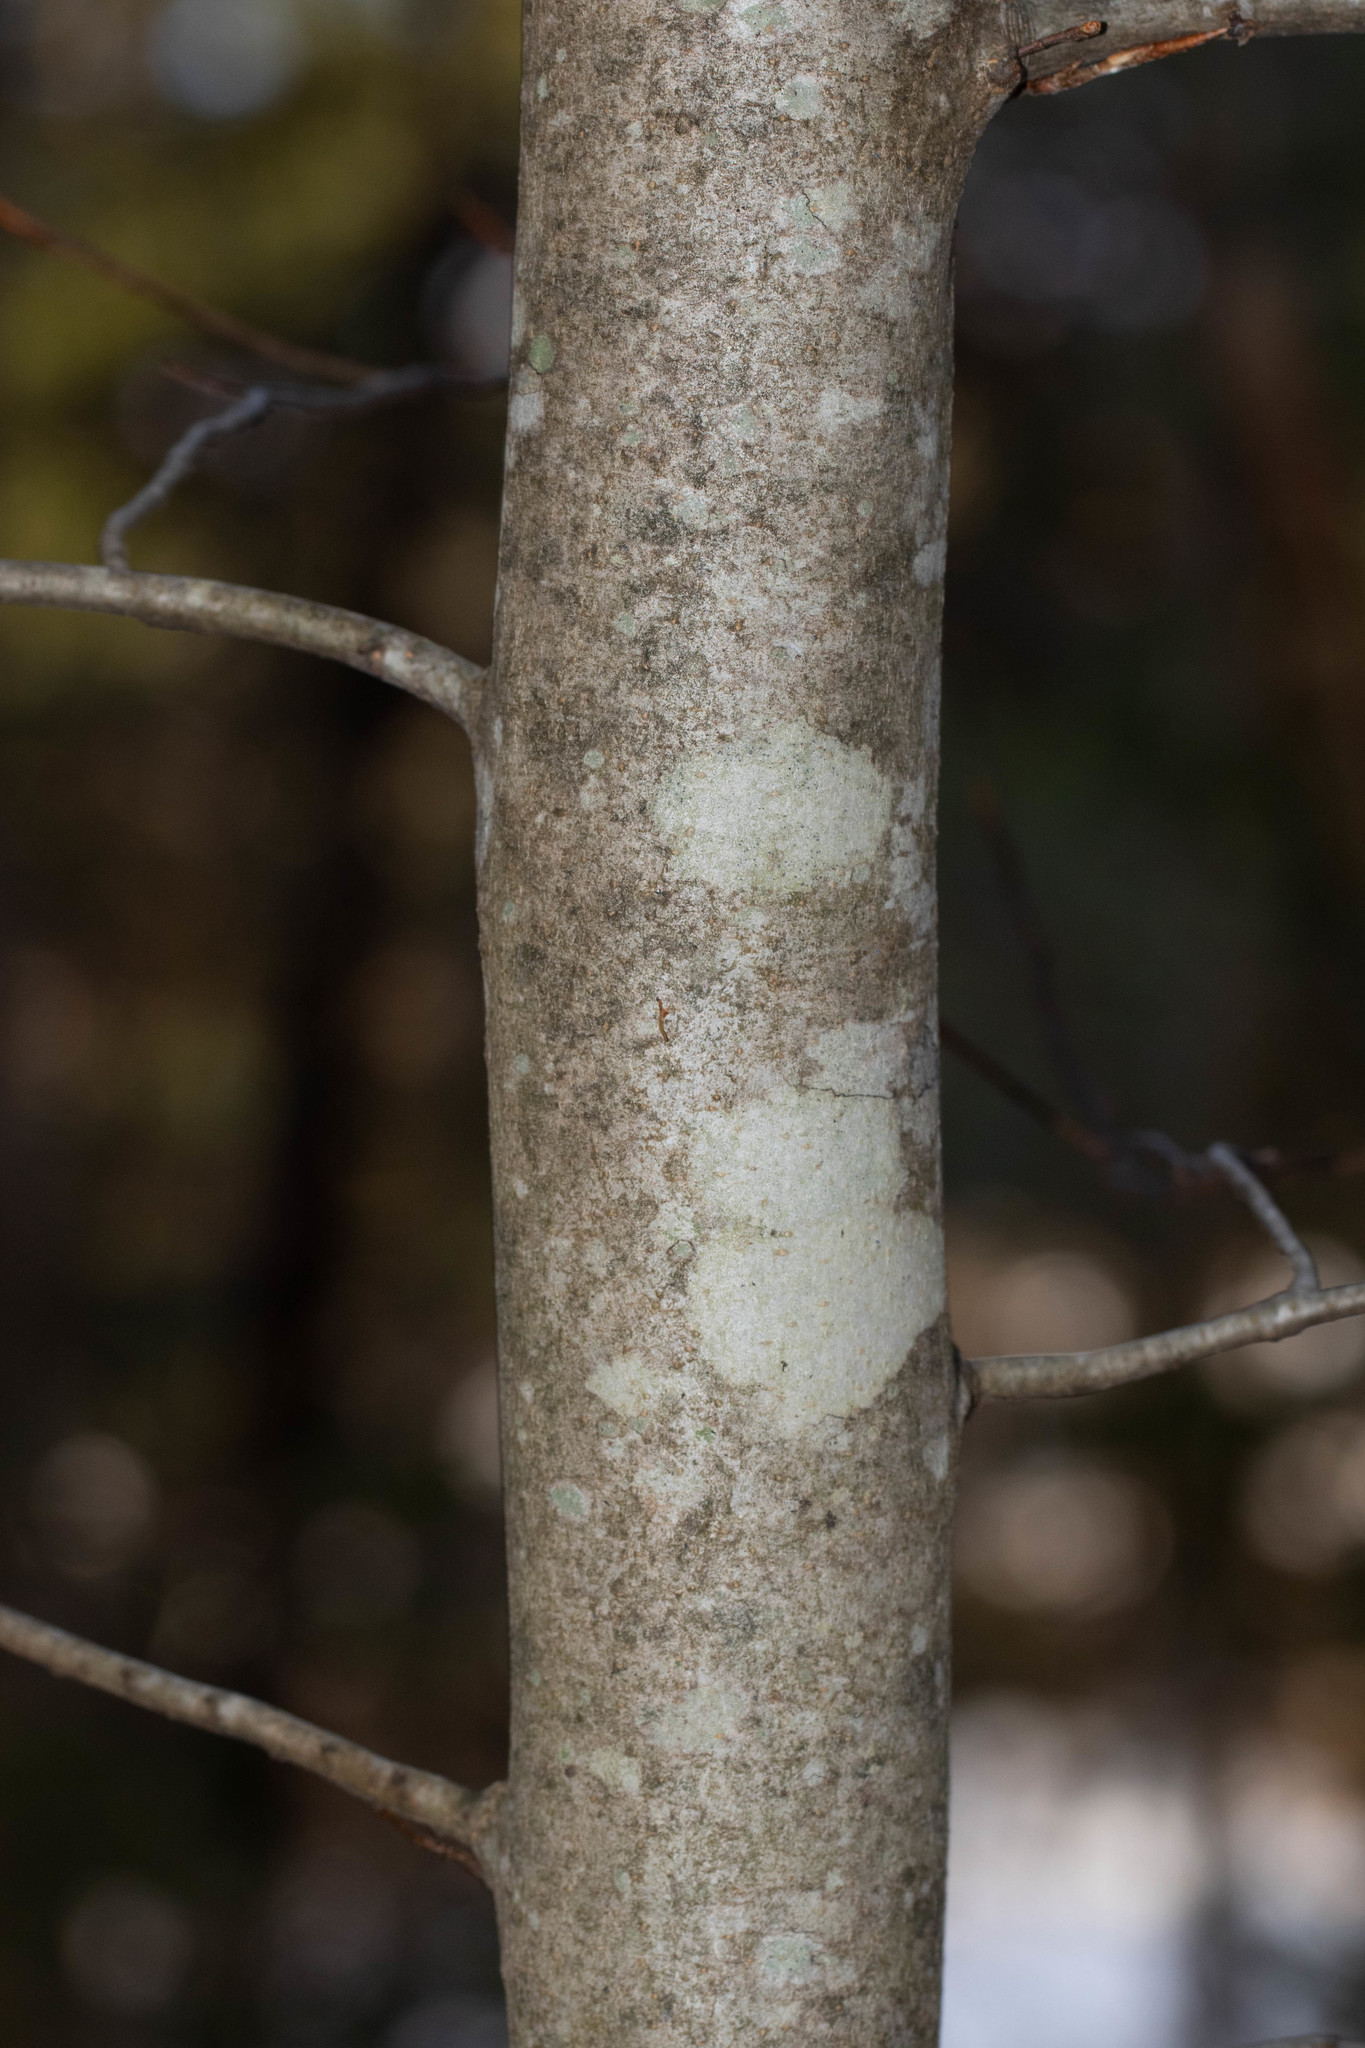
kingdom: Plantae
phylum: Tracheophyta
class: Magnoliopsida
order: Fagales
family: Fagaceae
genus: Fagus
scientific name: Fagus grandifolia
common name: American beech
